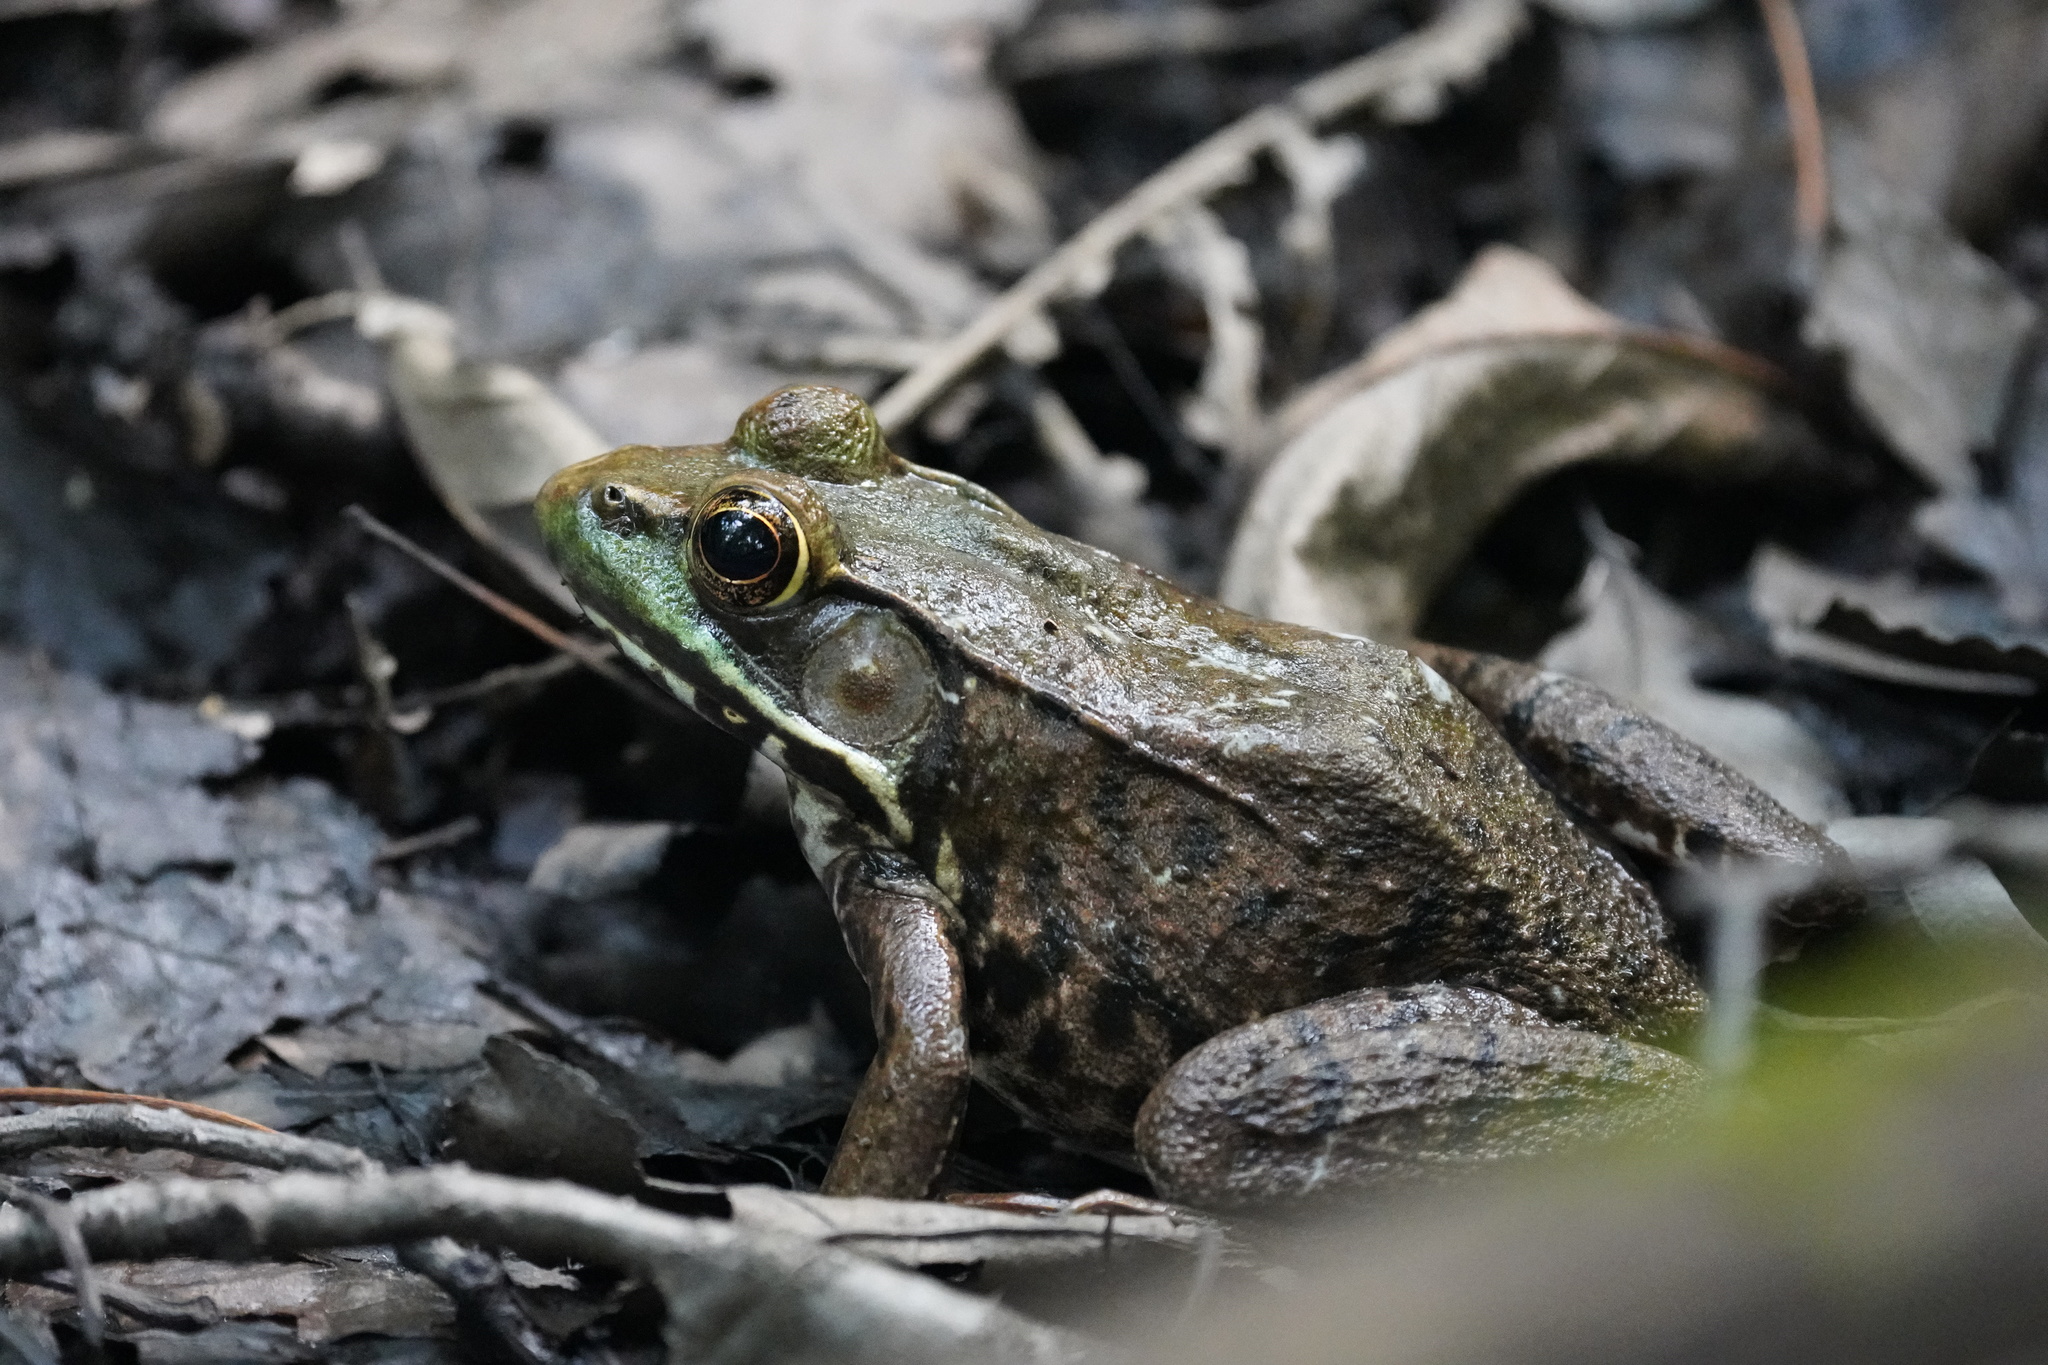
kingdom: Animalia
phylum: Chordata
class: Amphibia
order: Anura
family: Ranidae
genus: Lithobates
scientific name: Lithobates clamitans
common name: Green frog
